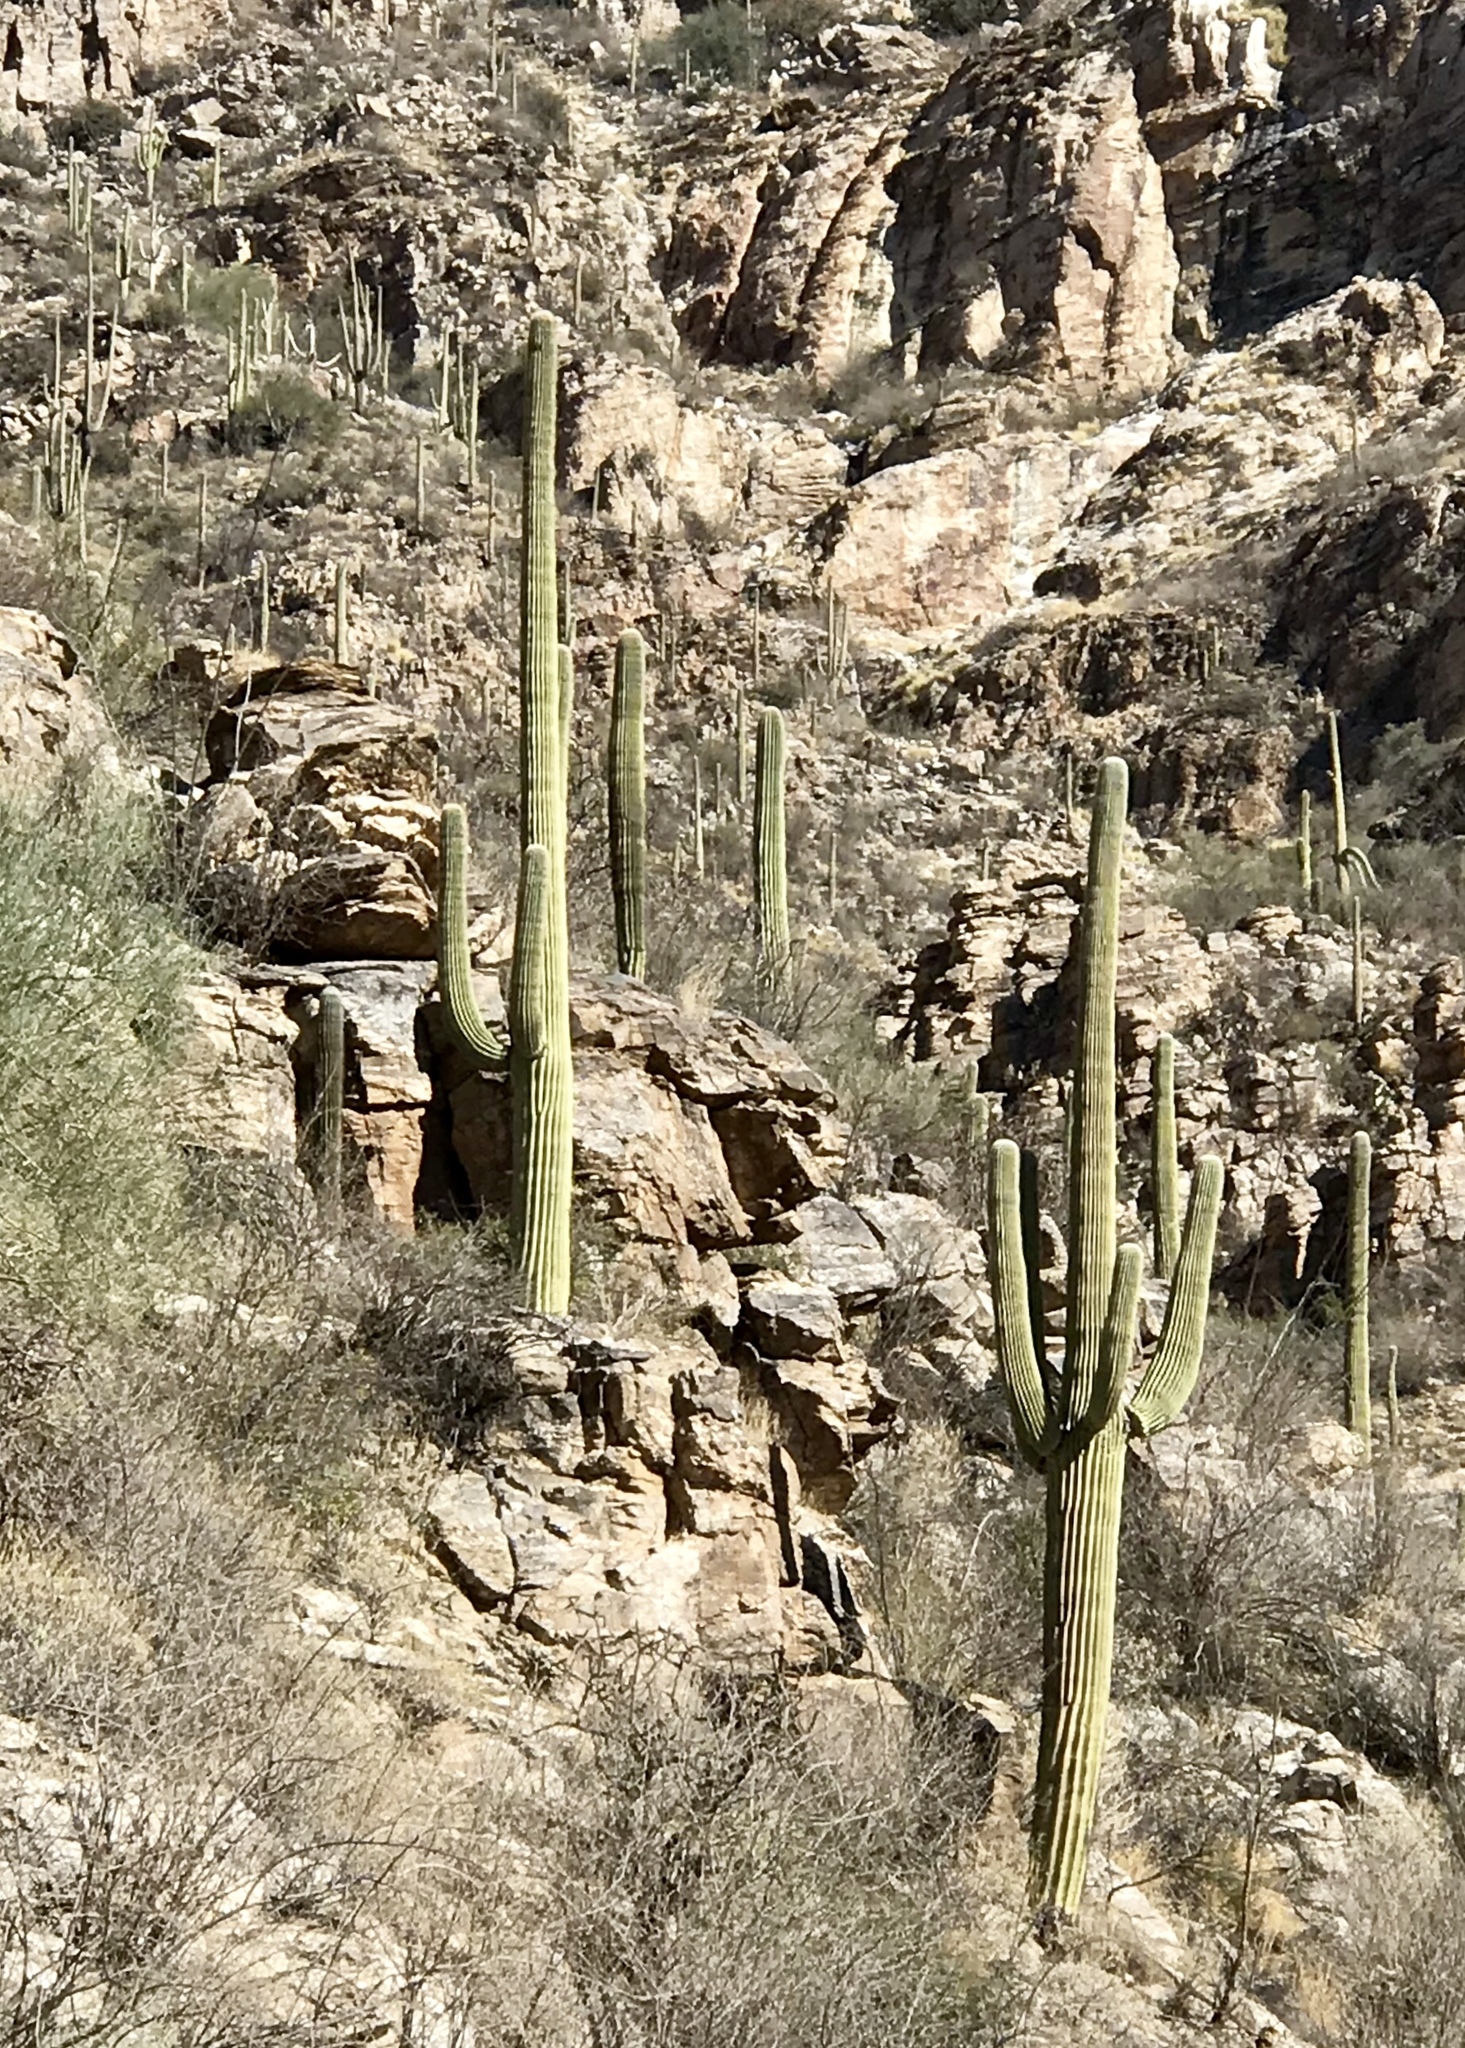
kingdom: Plantae
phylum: Tracheophyta
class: Magnoliopsida
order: Caryophyllales
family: Cactaceae
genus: Carnegiea
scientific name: Carnegiea gigantea
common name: Saguaro
